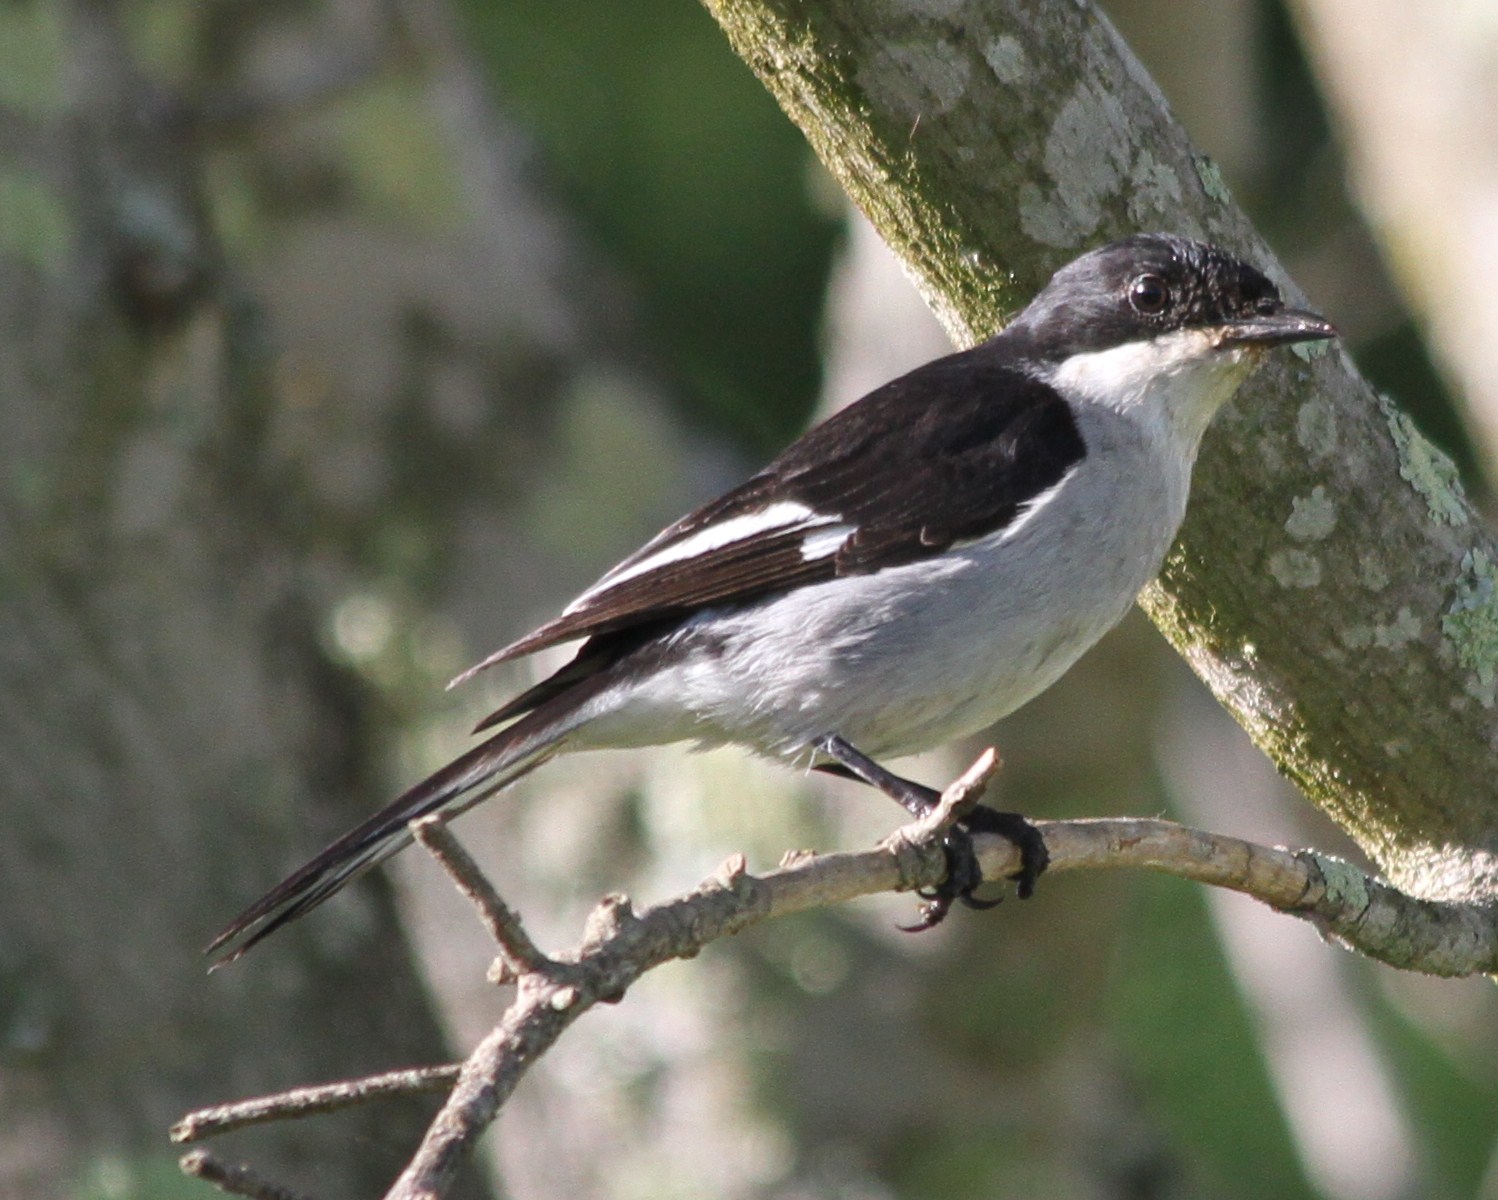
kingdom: Animalia
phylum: Chordata
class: Aves
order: Passeriformes
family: Muscicapidae
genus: Sigelus
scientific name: Sigelus silens
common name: Fiscal flycatcher
